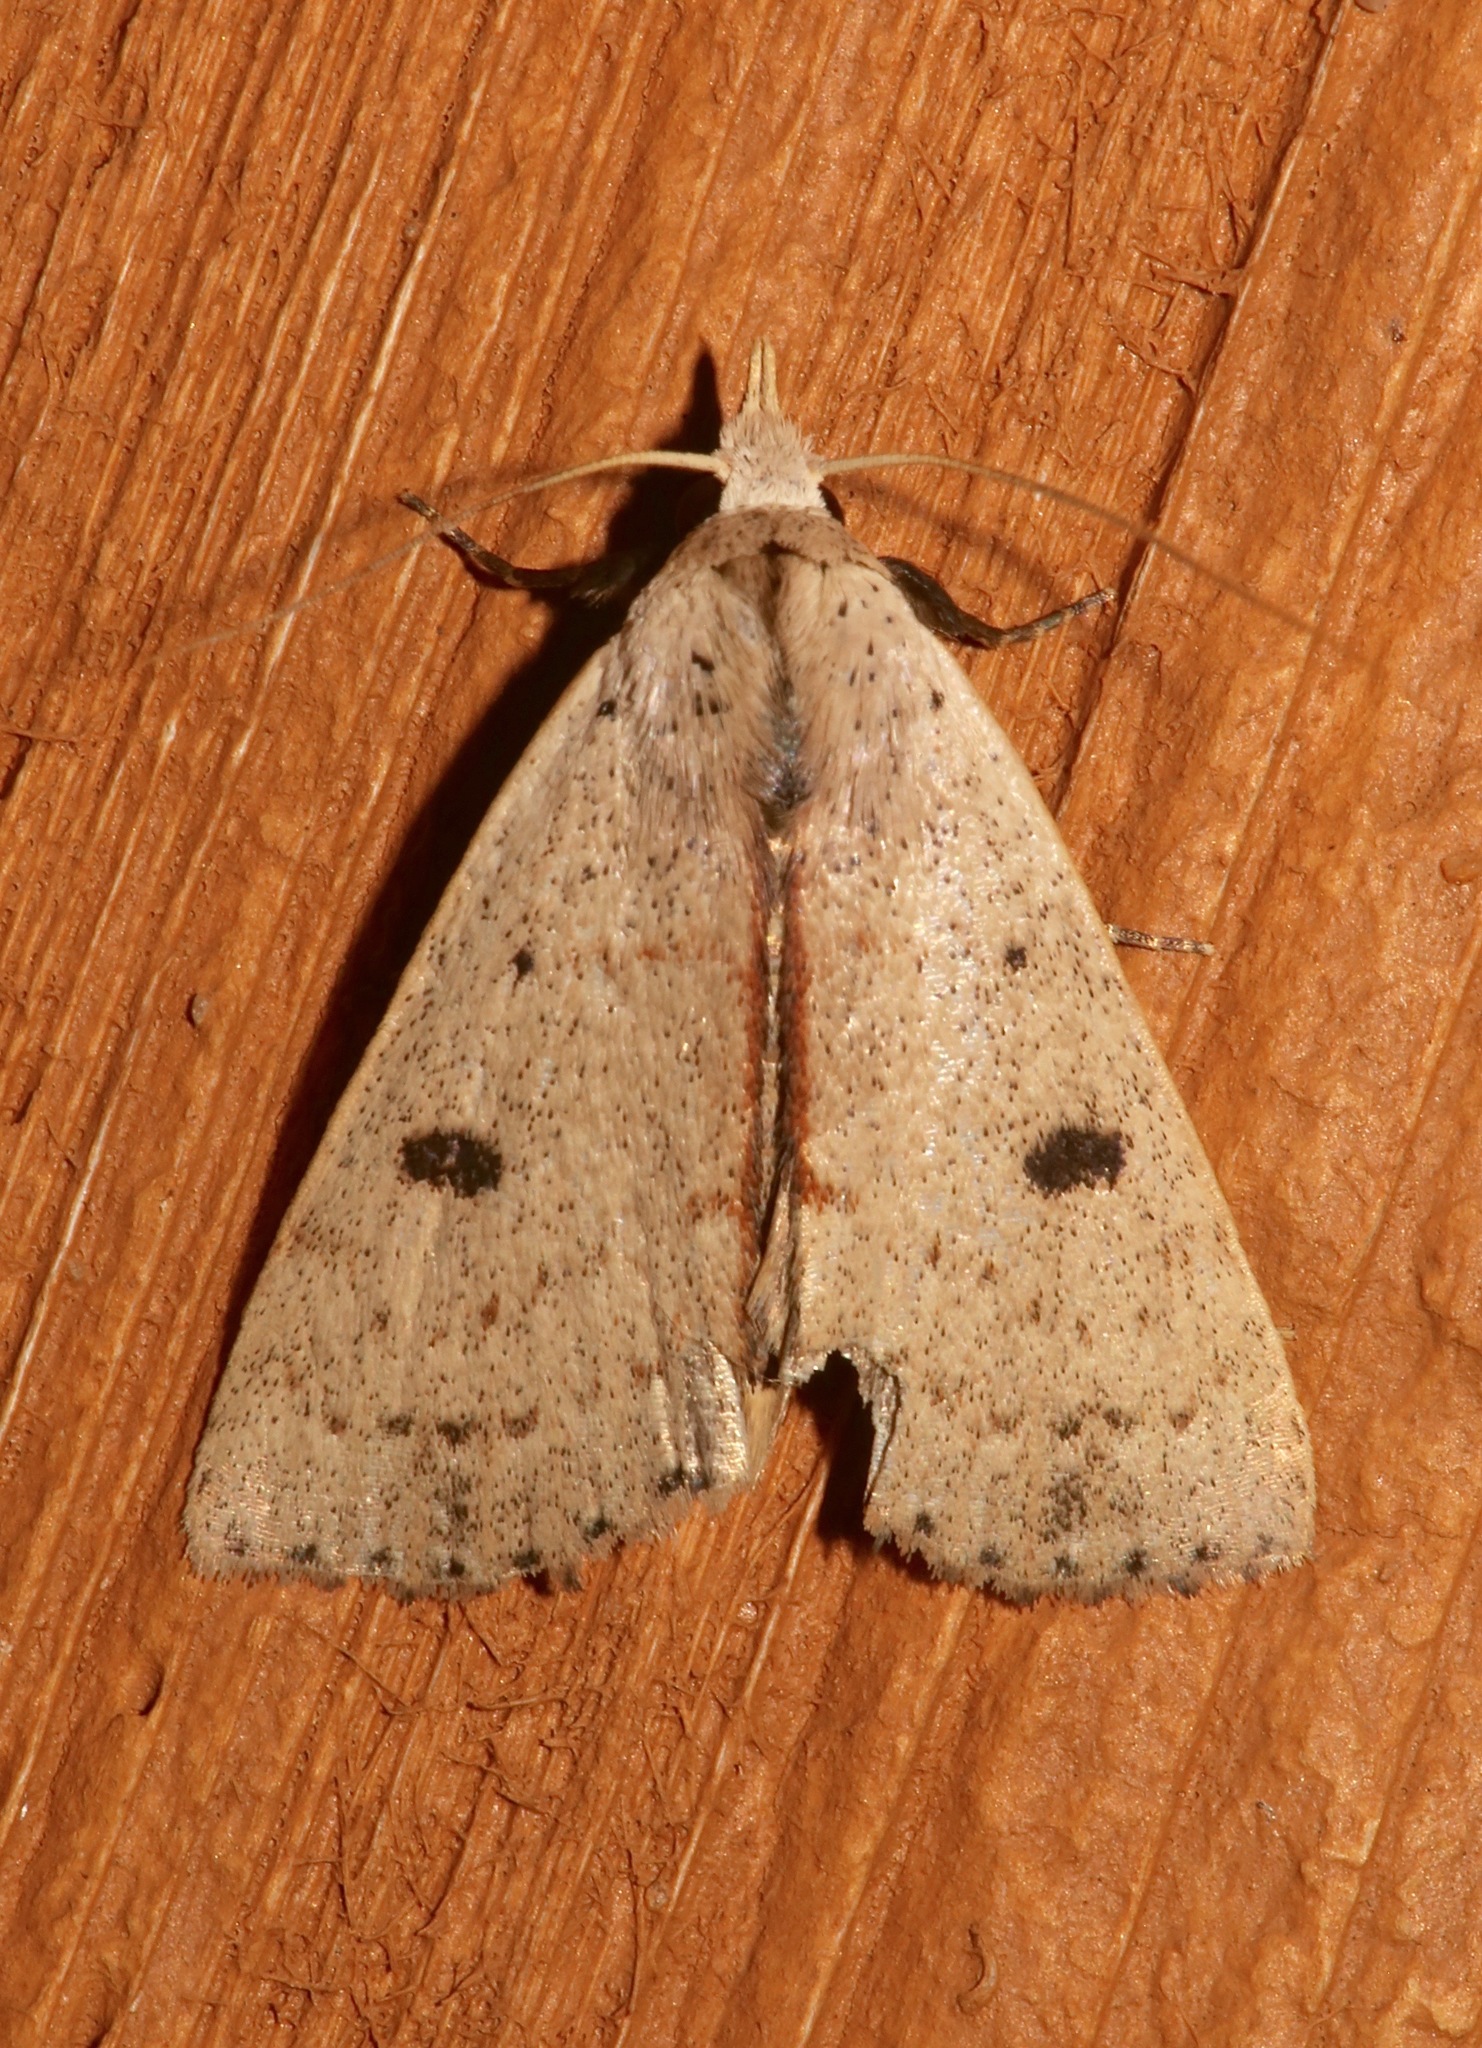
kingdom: Animalia
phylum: Arthropoda
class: Insecta
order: Lepidoptera
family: Erebidae
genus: Scolecocampa
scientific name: Scolecocampa liburna
